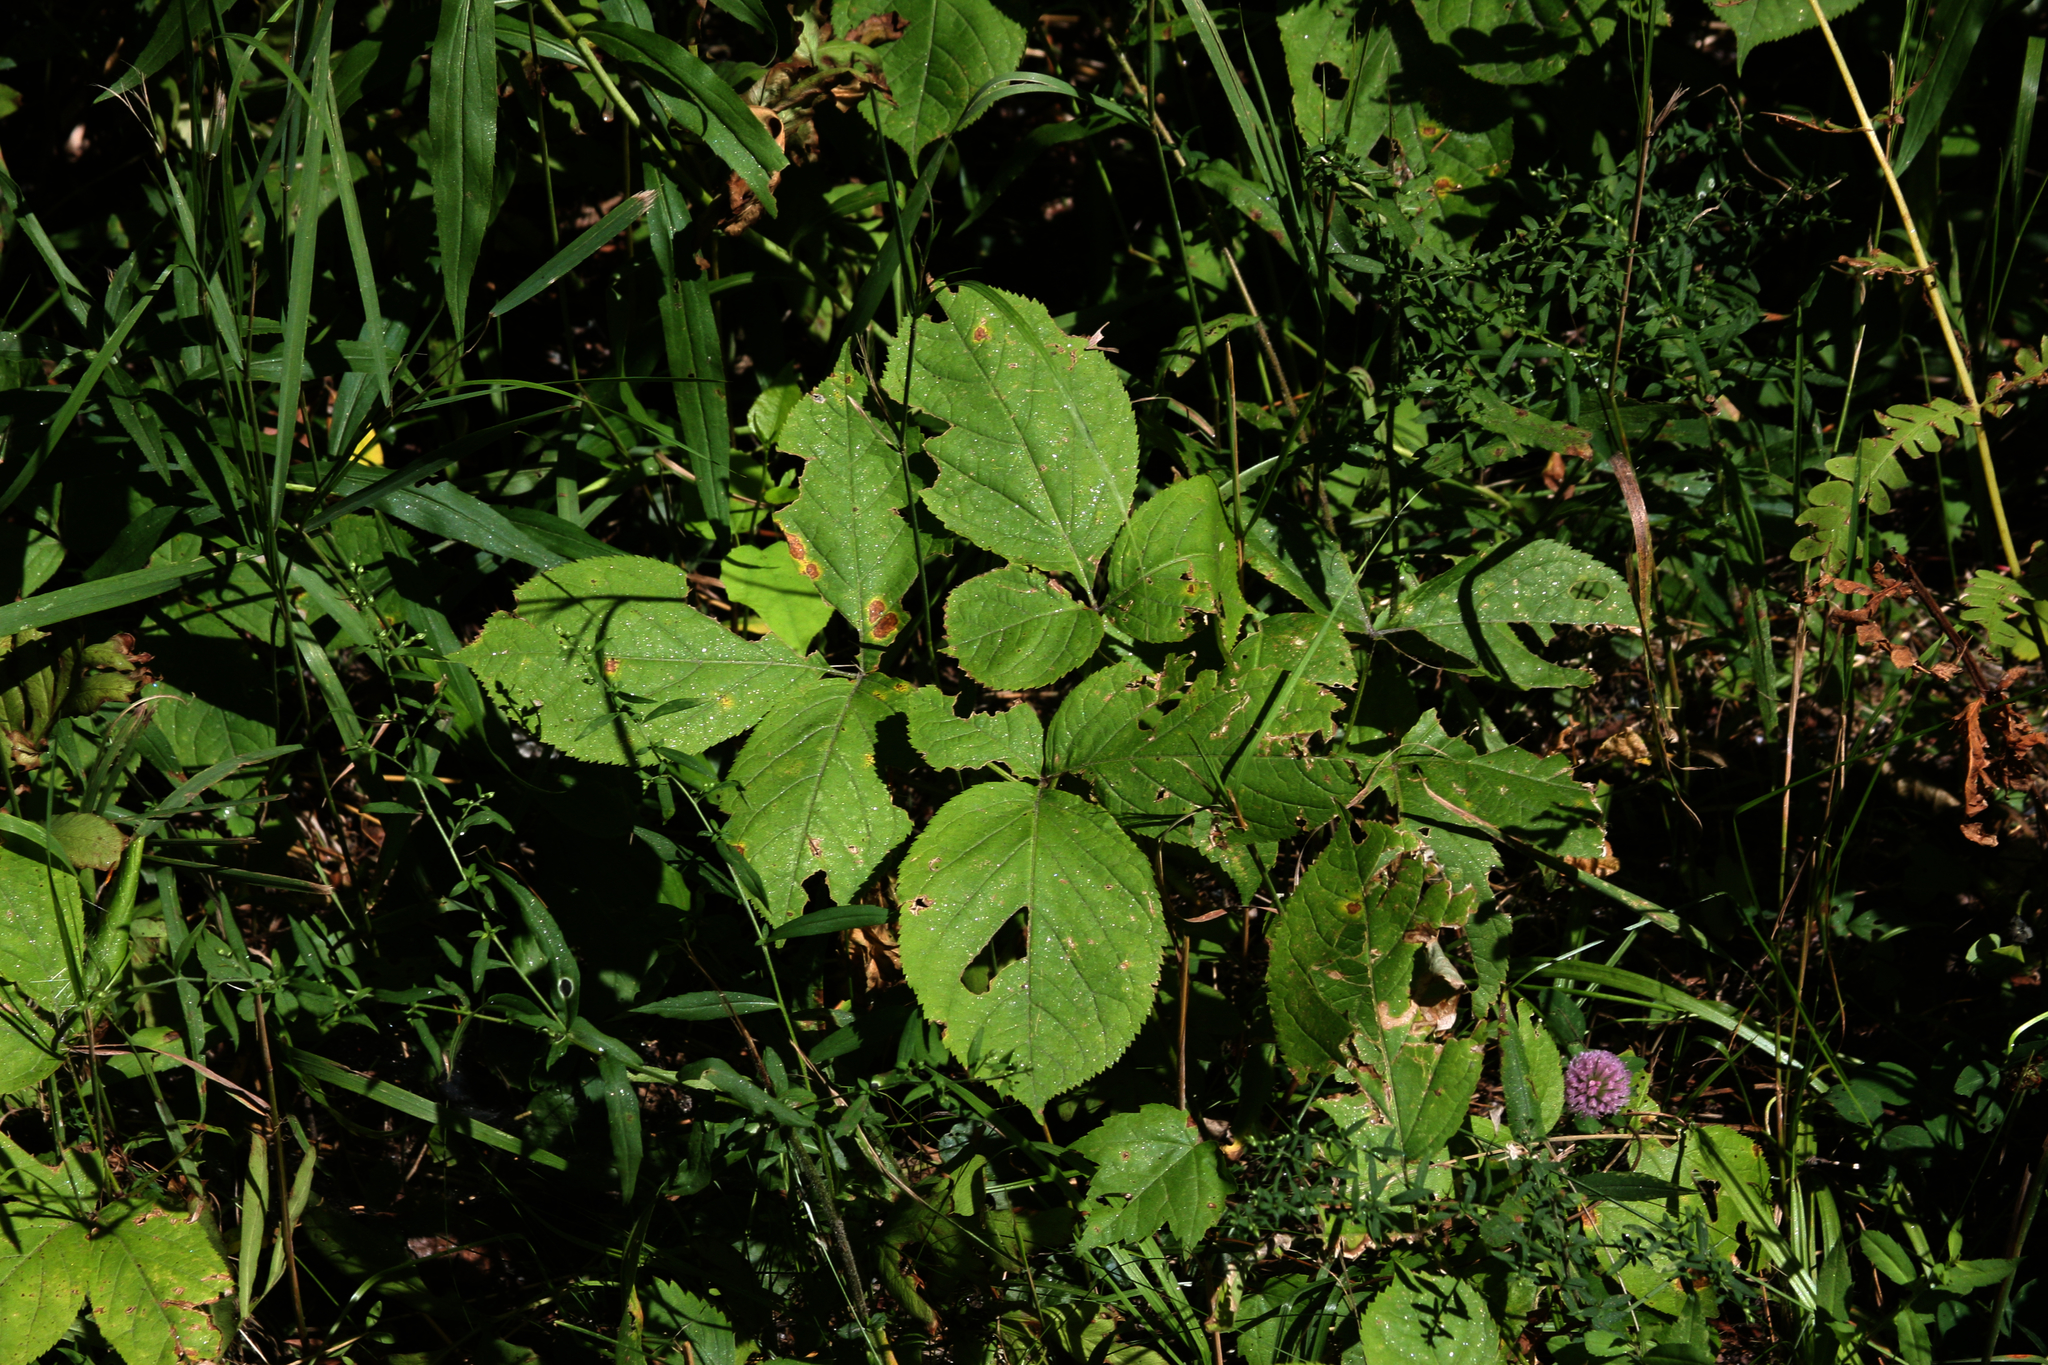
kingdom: Plantae
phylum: Tracheophyta
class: Magnoliopsida
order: Apiales
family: Araliaceae
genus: Aralia
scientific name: Aralia nudicaulis
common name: Wild sarsaparilla
